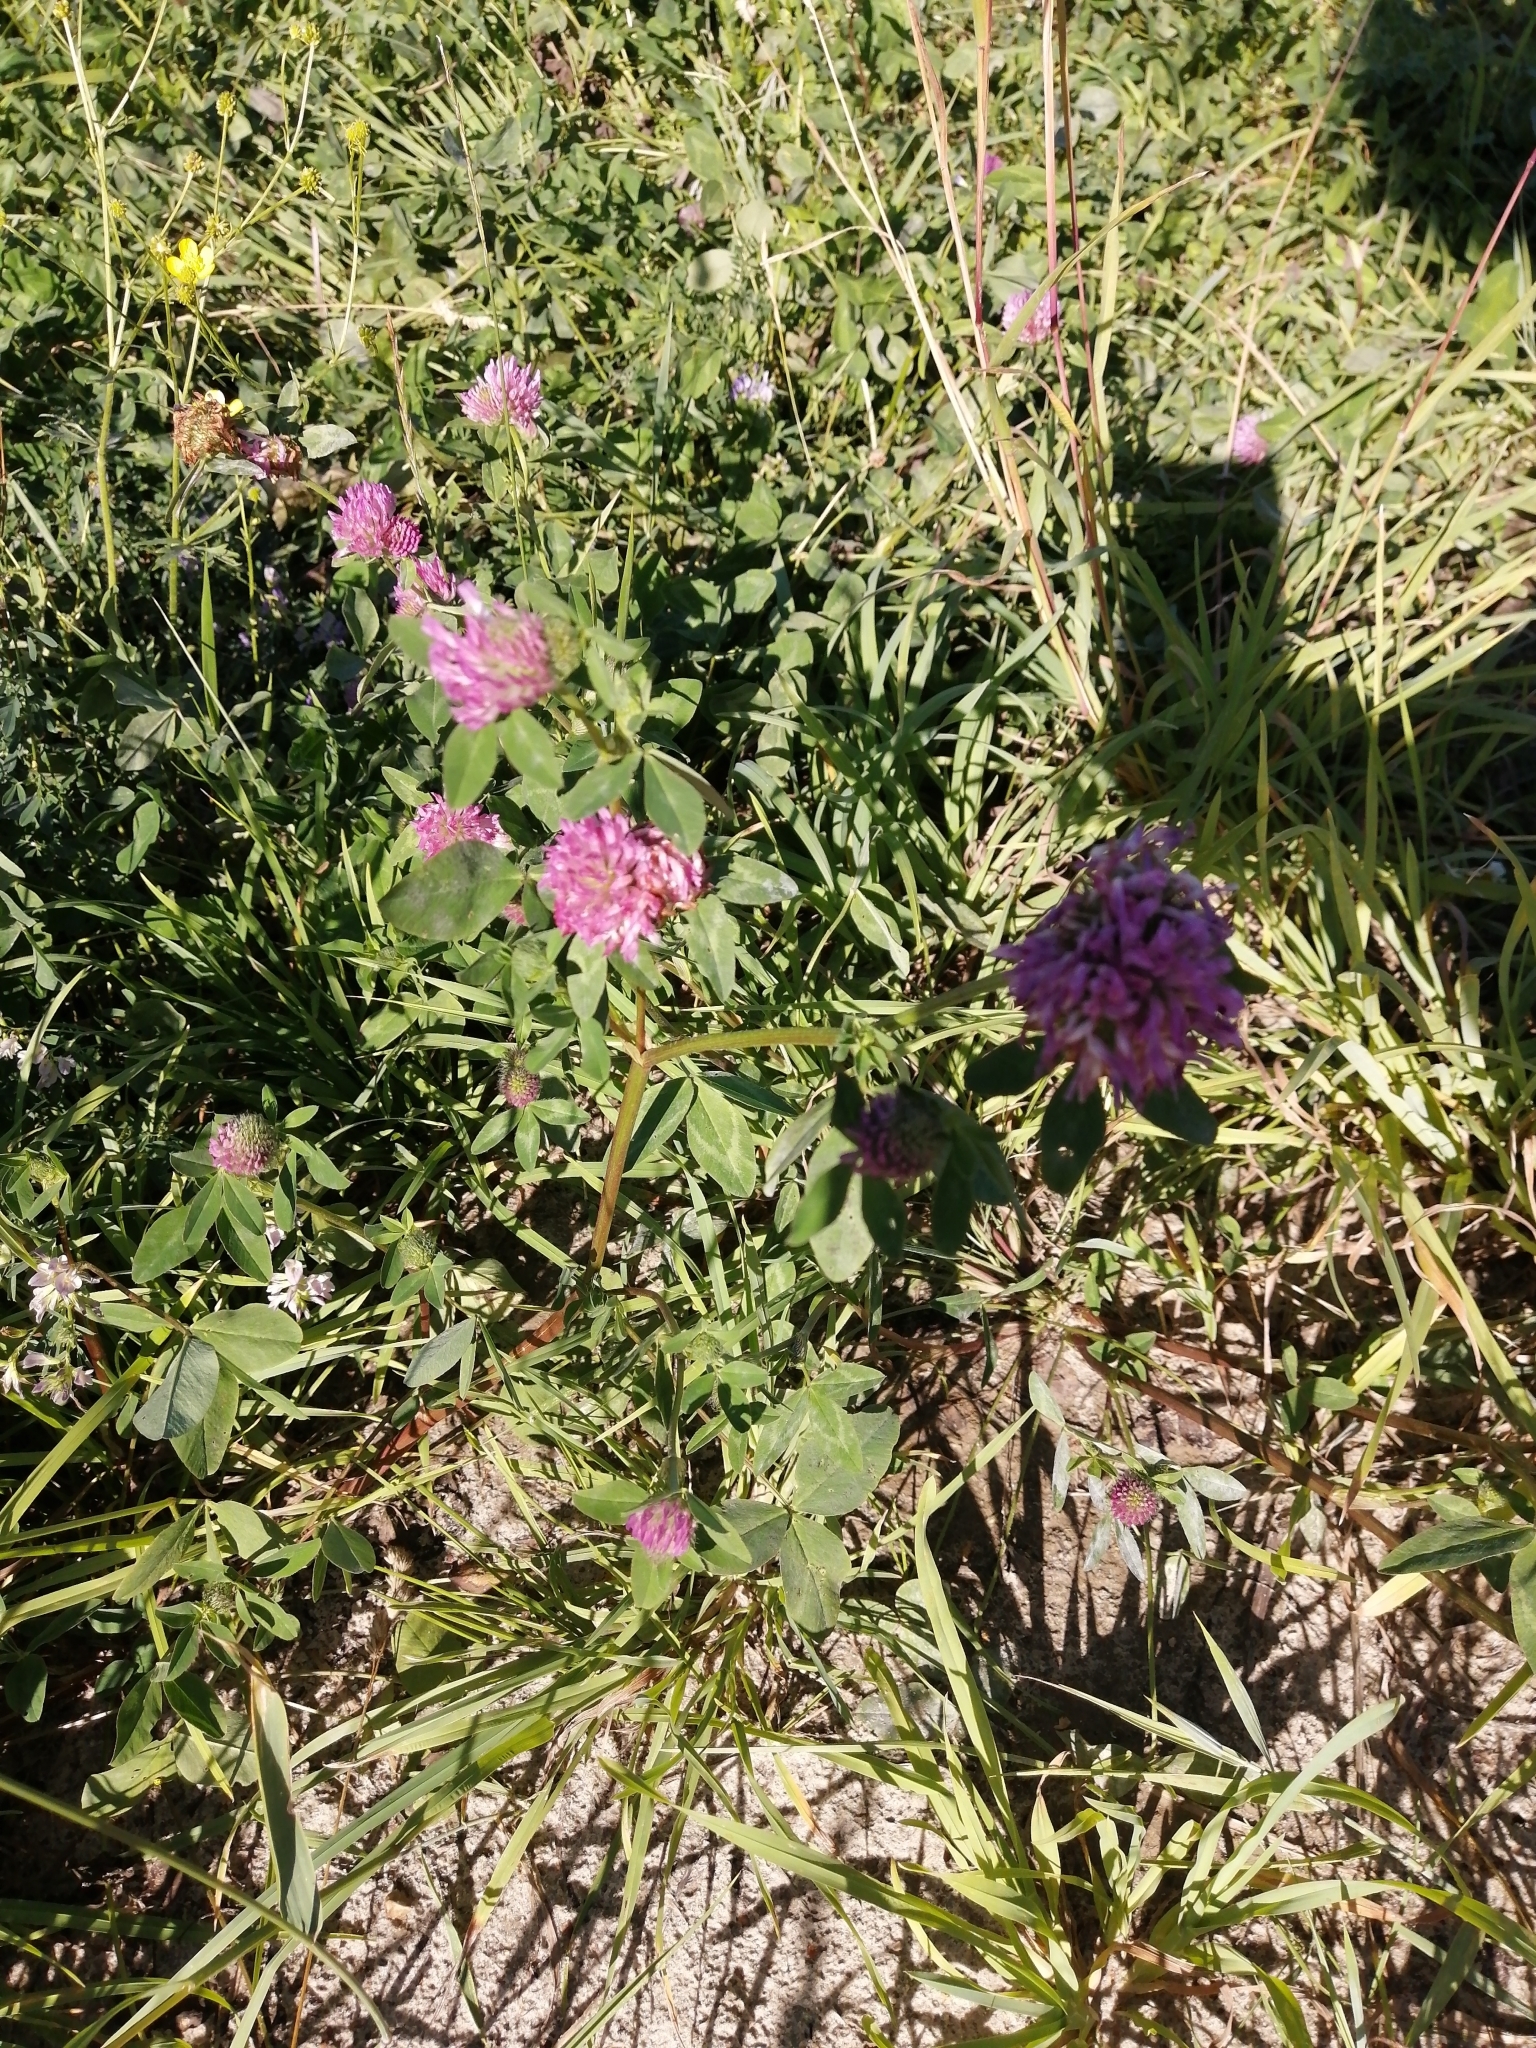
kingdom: Plantae
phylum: Tracheophyta
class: Magnoliopsida
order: Fabales
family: Fabaceae
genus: Trifolium
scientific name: Trifolium pratense
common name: Red clover
